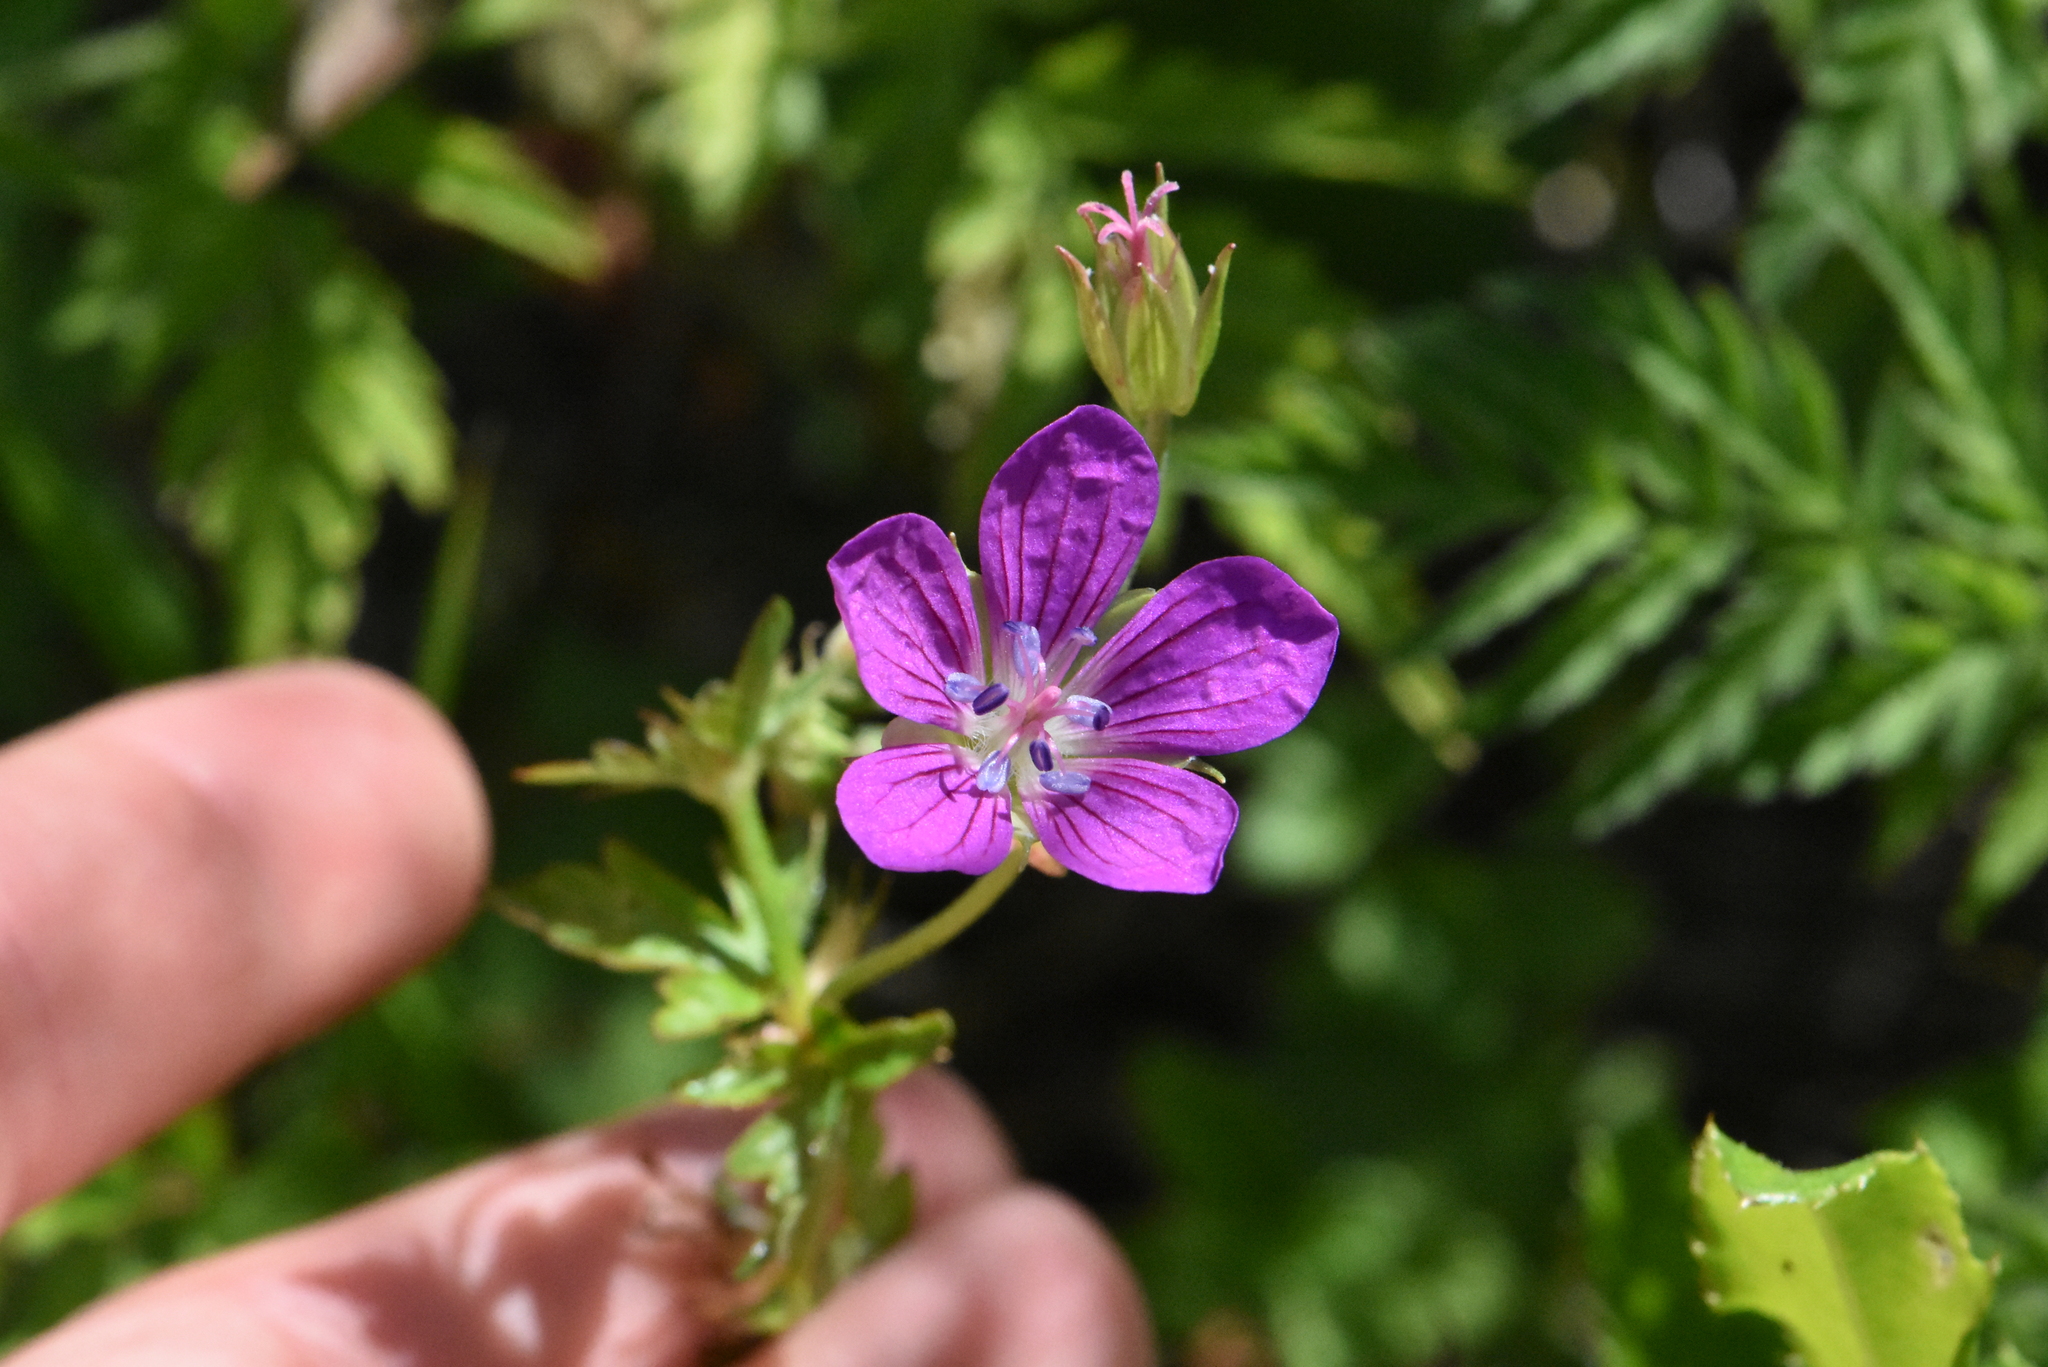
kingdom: Plantae
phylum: Tracheophyta
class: Magnoliopsida
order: Geraniales
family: Geraniaceae
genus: Geranium
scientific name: Geranium palustre
